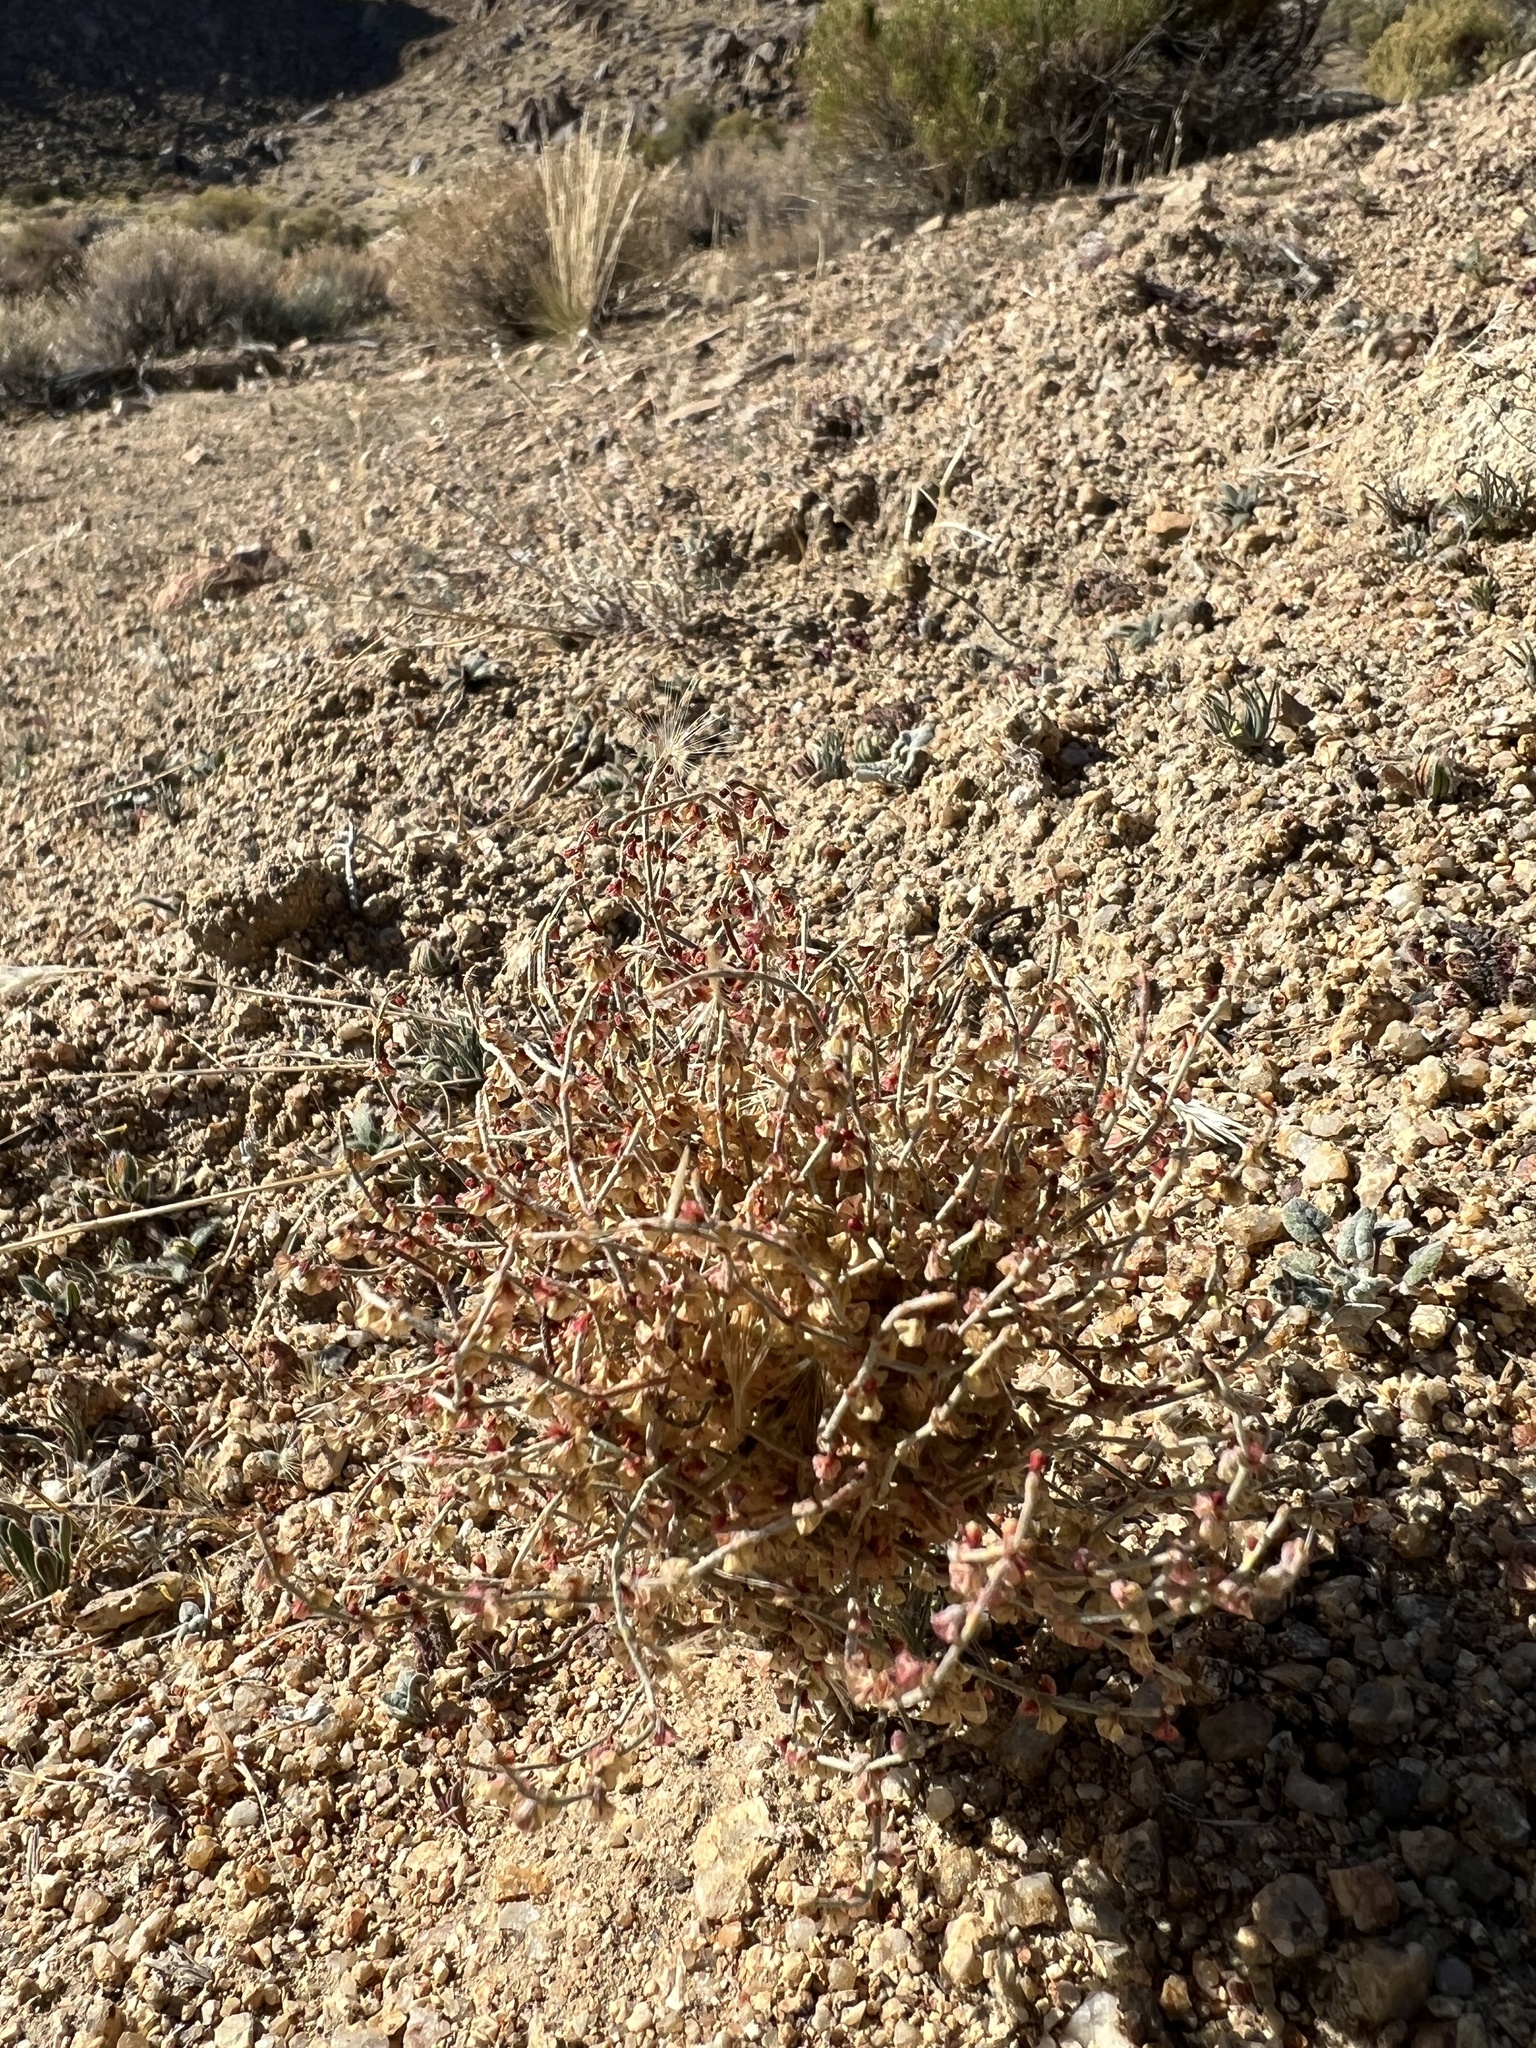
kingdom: Plantae
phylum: Tracheophyta
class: Magnoliopsida
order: Caryophyllales
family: Polygonaceae
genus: Eriogonum
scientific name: Eriogonum nidularium
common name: Bird's-nest wild buckwheat
